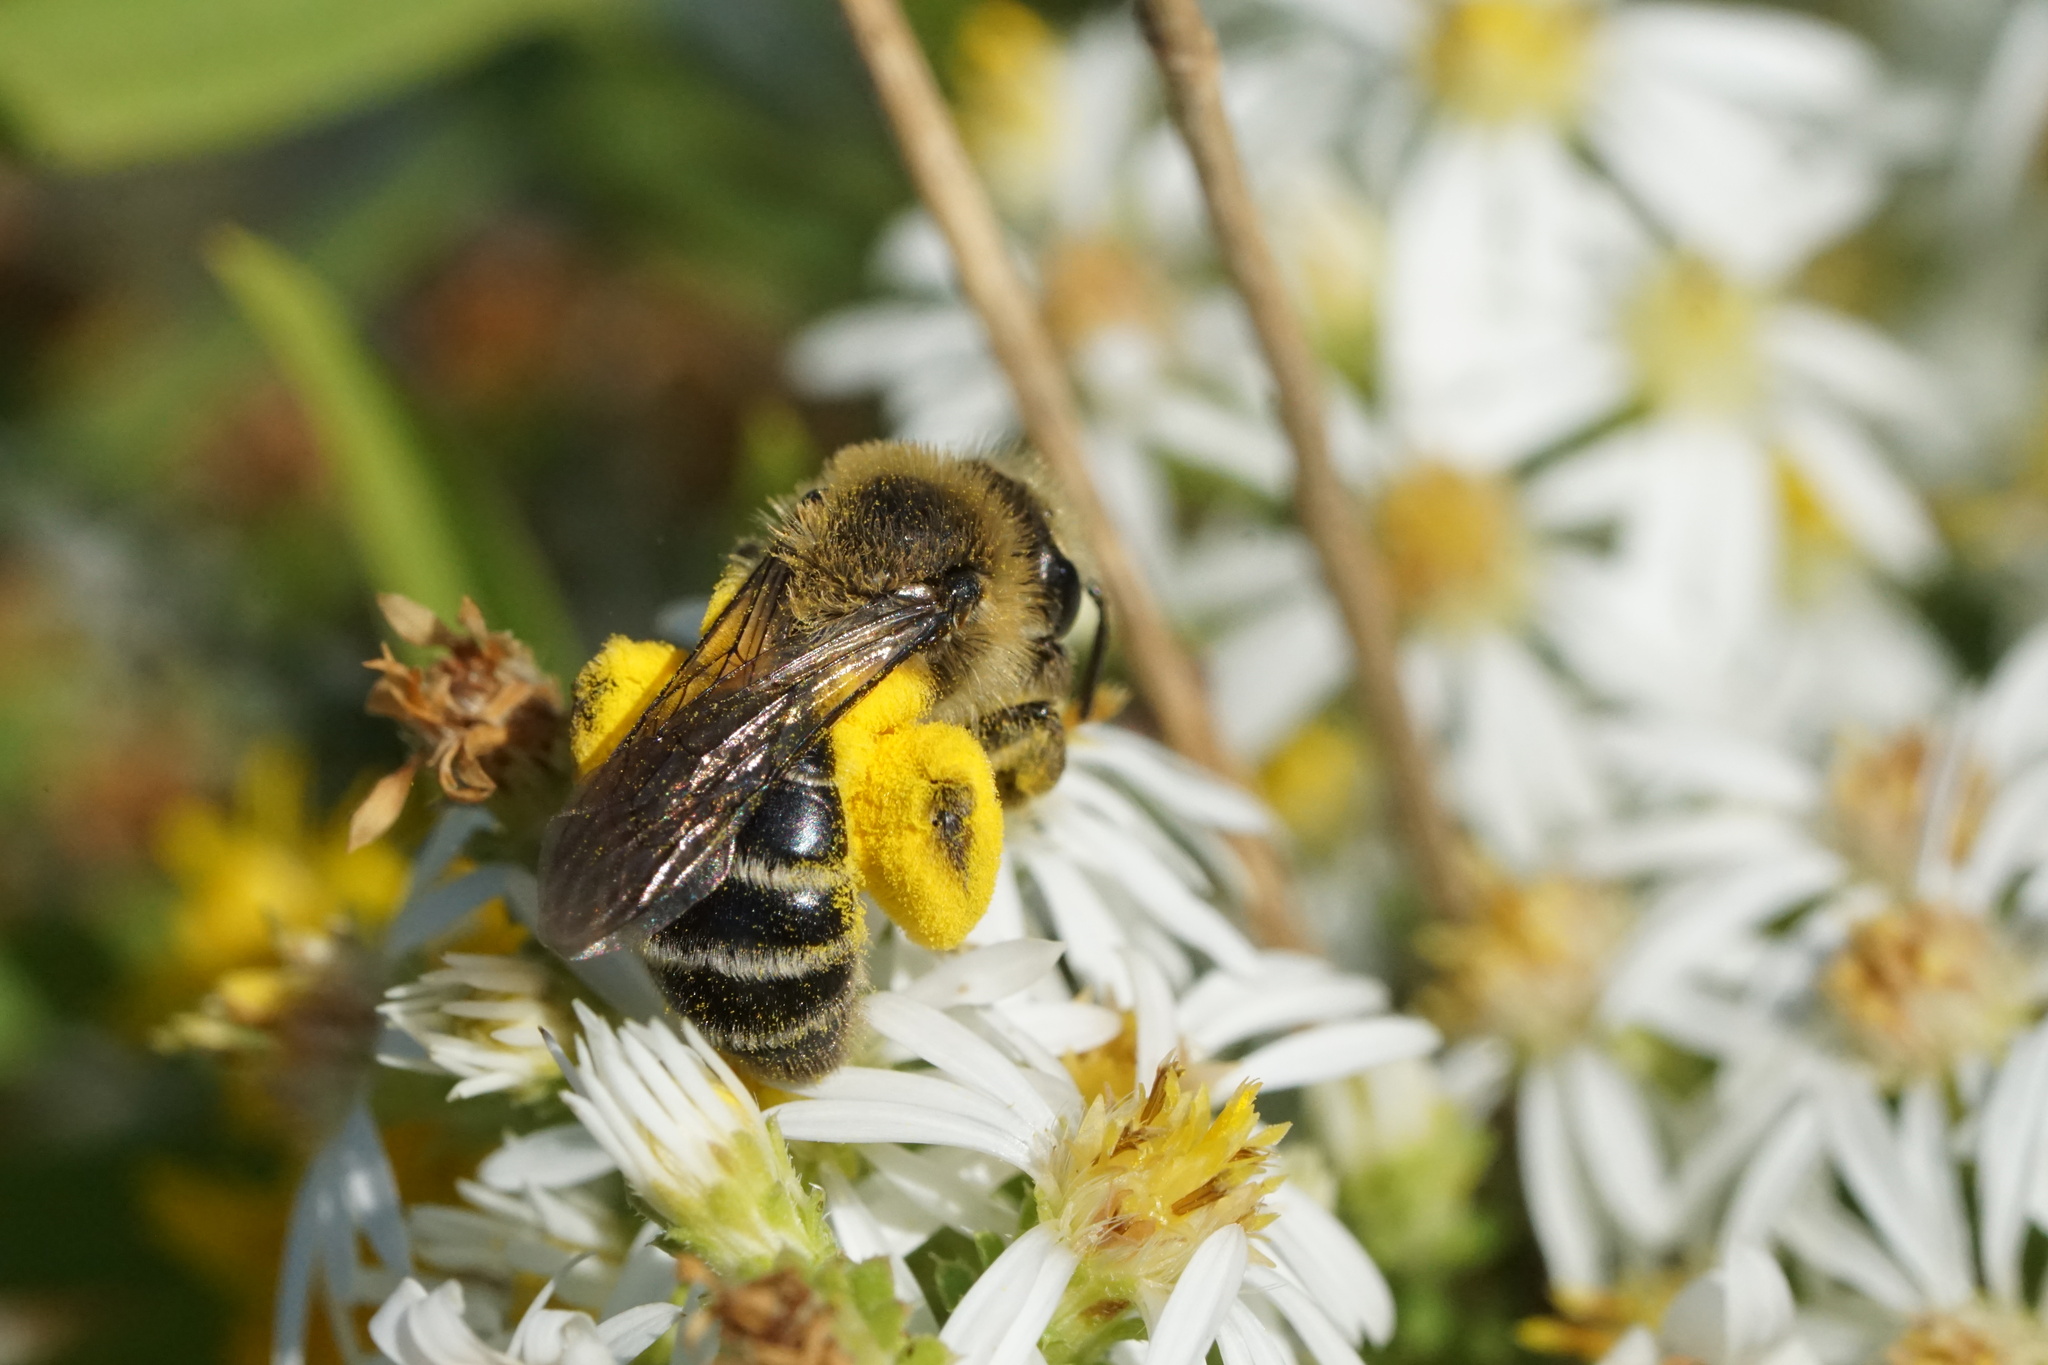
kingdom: Animalia
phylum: Arthropoda
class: Insecta
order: Hymenoptera
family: Andrenidae
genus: Andrena
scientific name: Andrena asteris
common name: Aster mining bee
